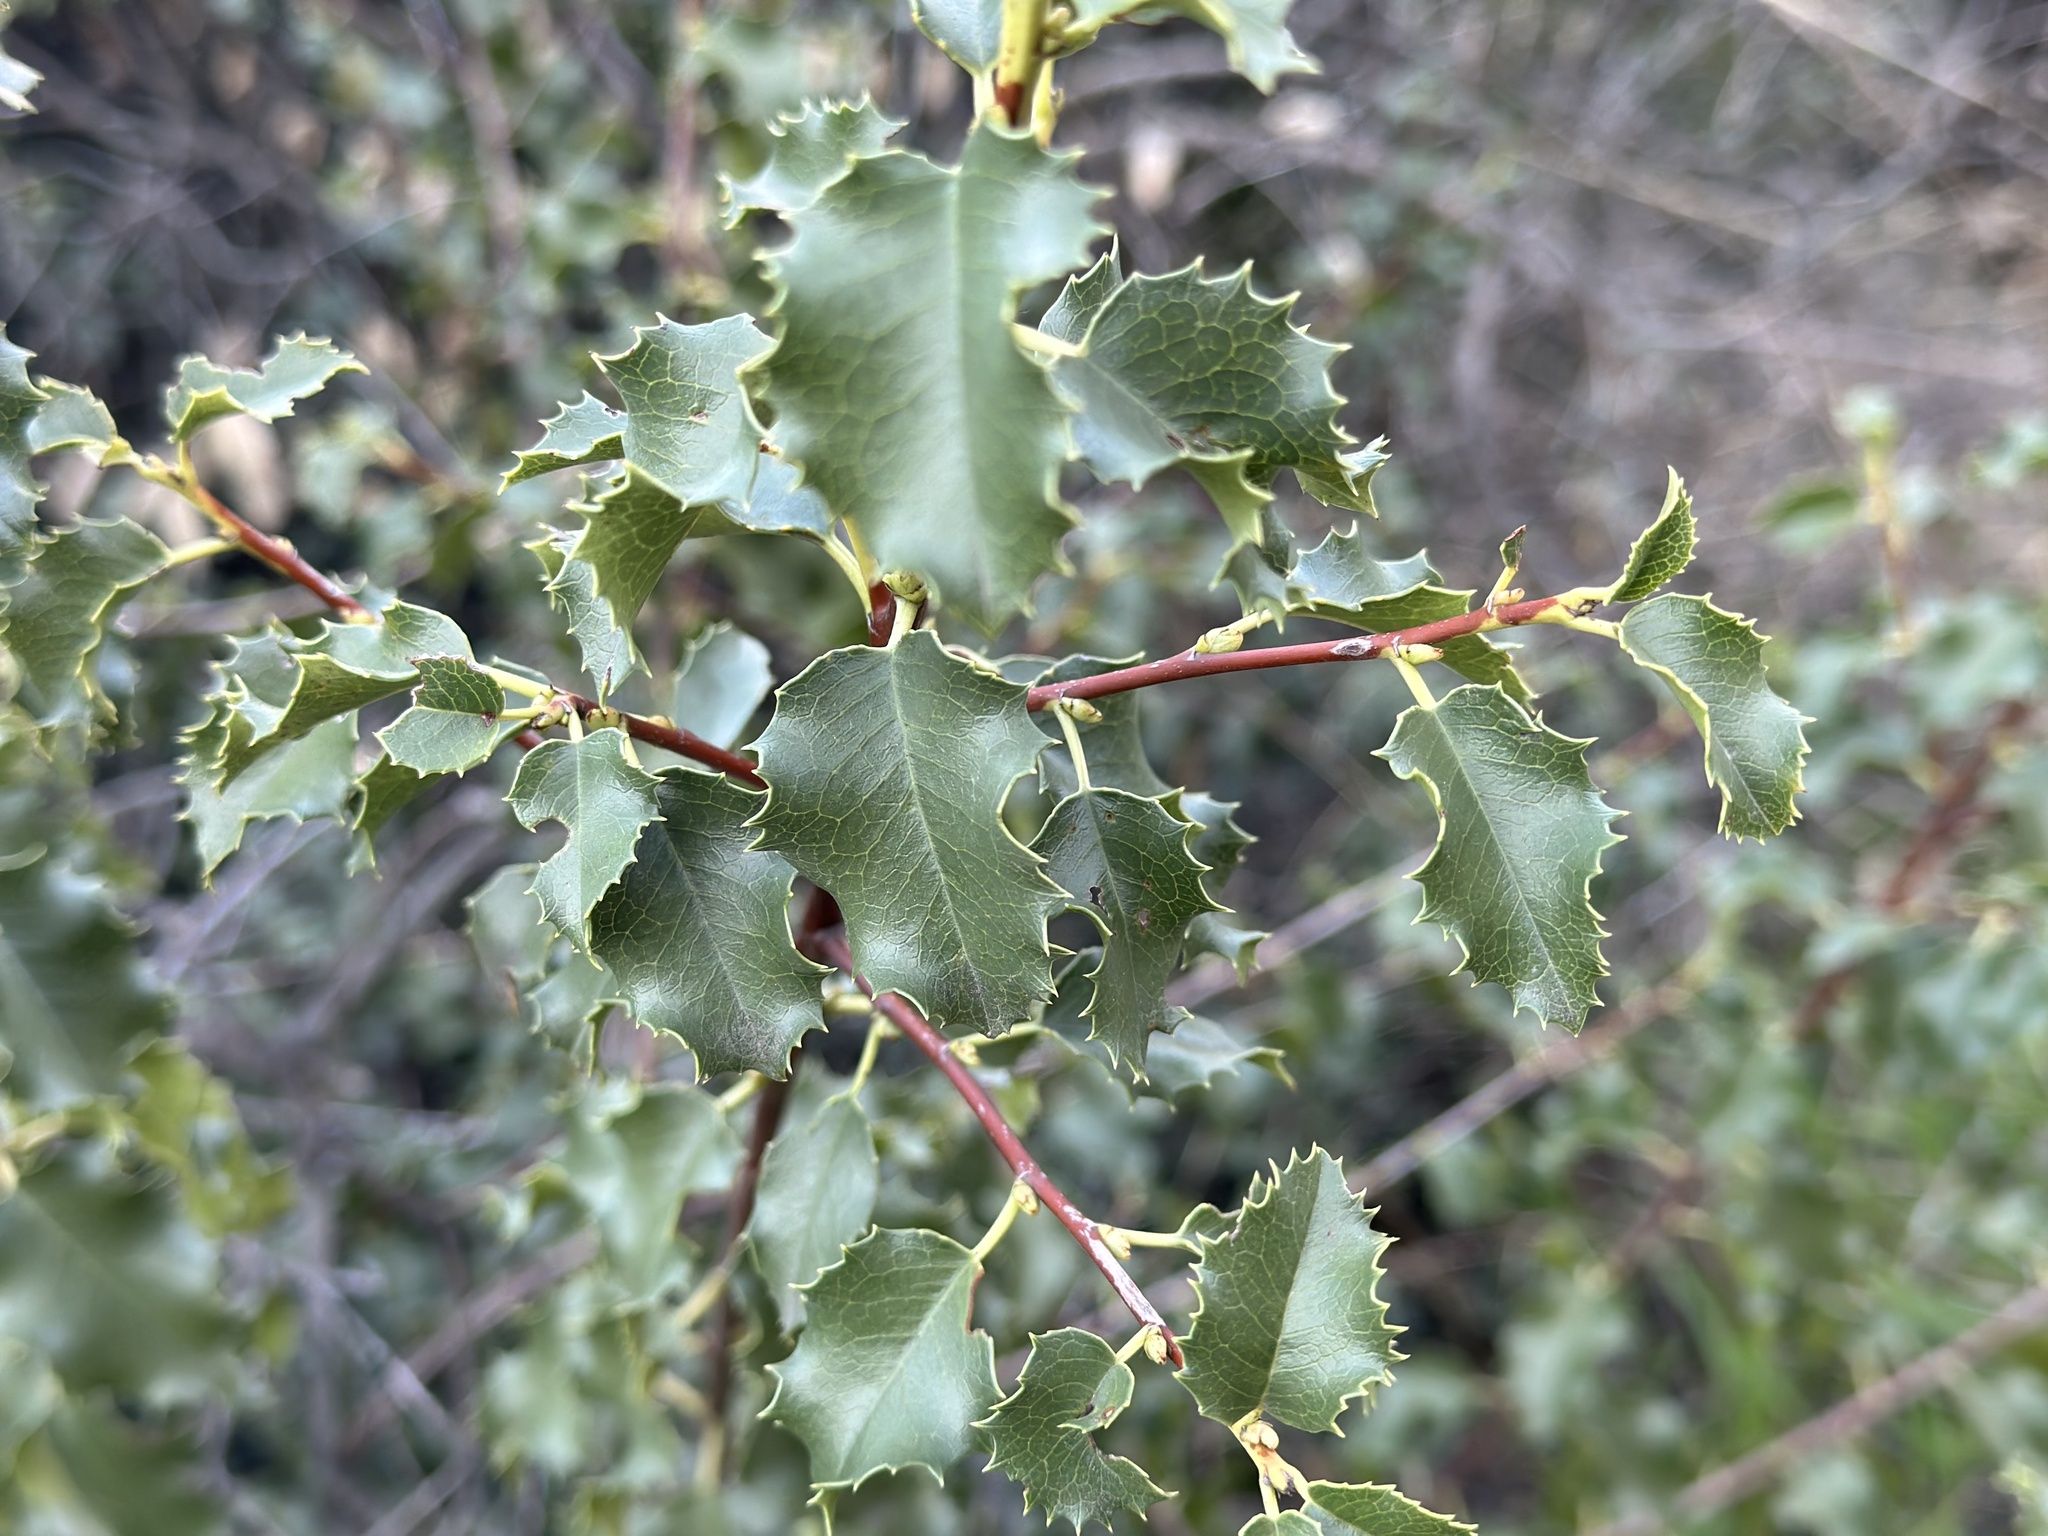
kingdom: Plantae
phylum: Tracheophyta
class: Magnoliopsida
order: Rosales
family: Rosaceae
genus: Prunus
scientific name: Prunus ilicifolia
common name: Hollyleaf cherry
